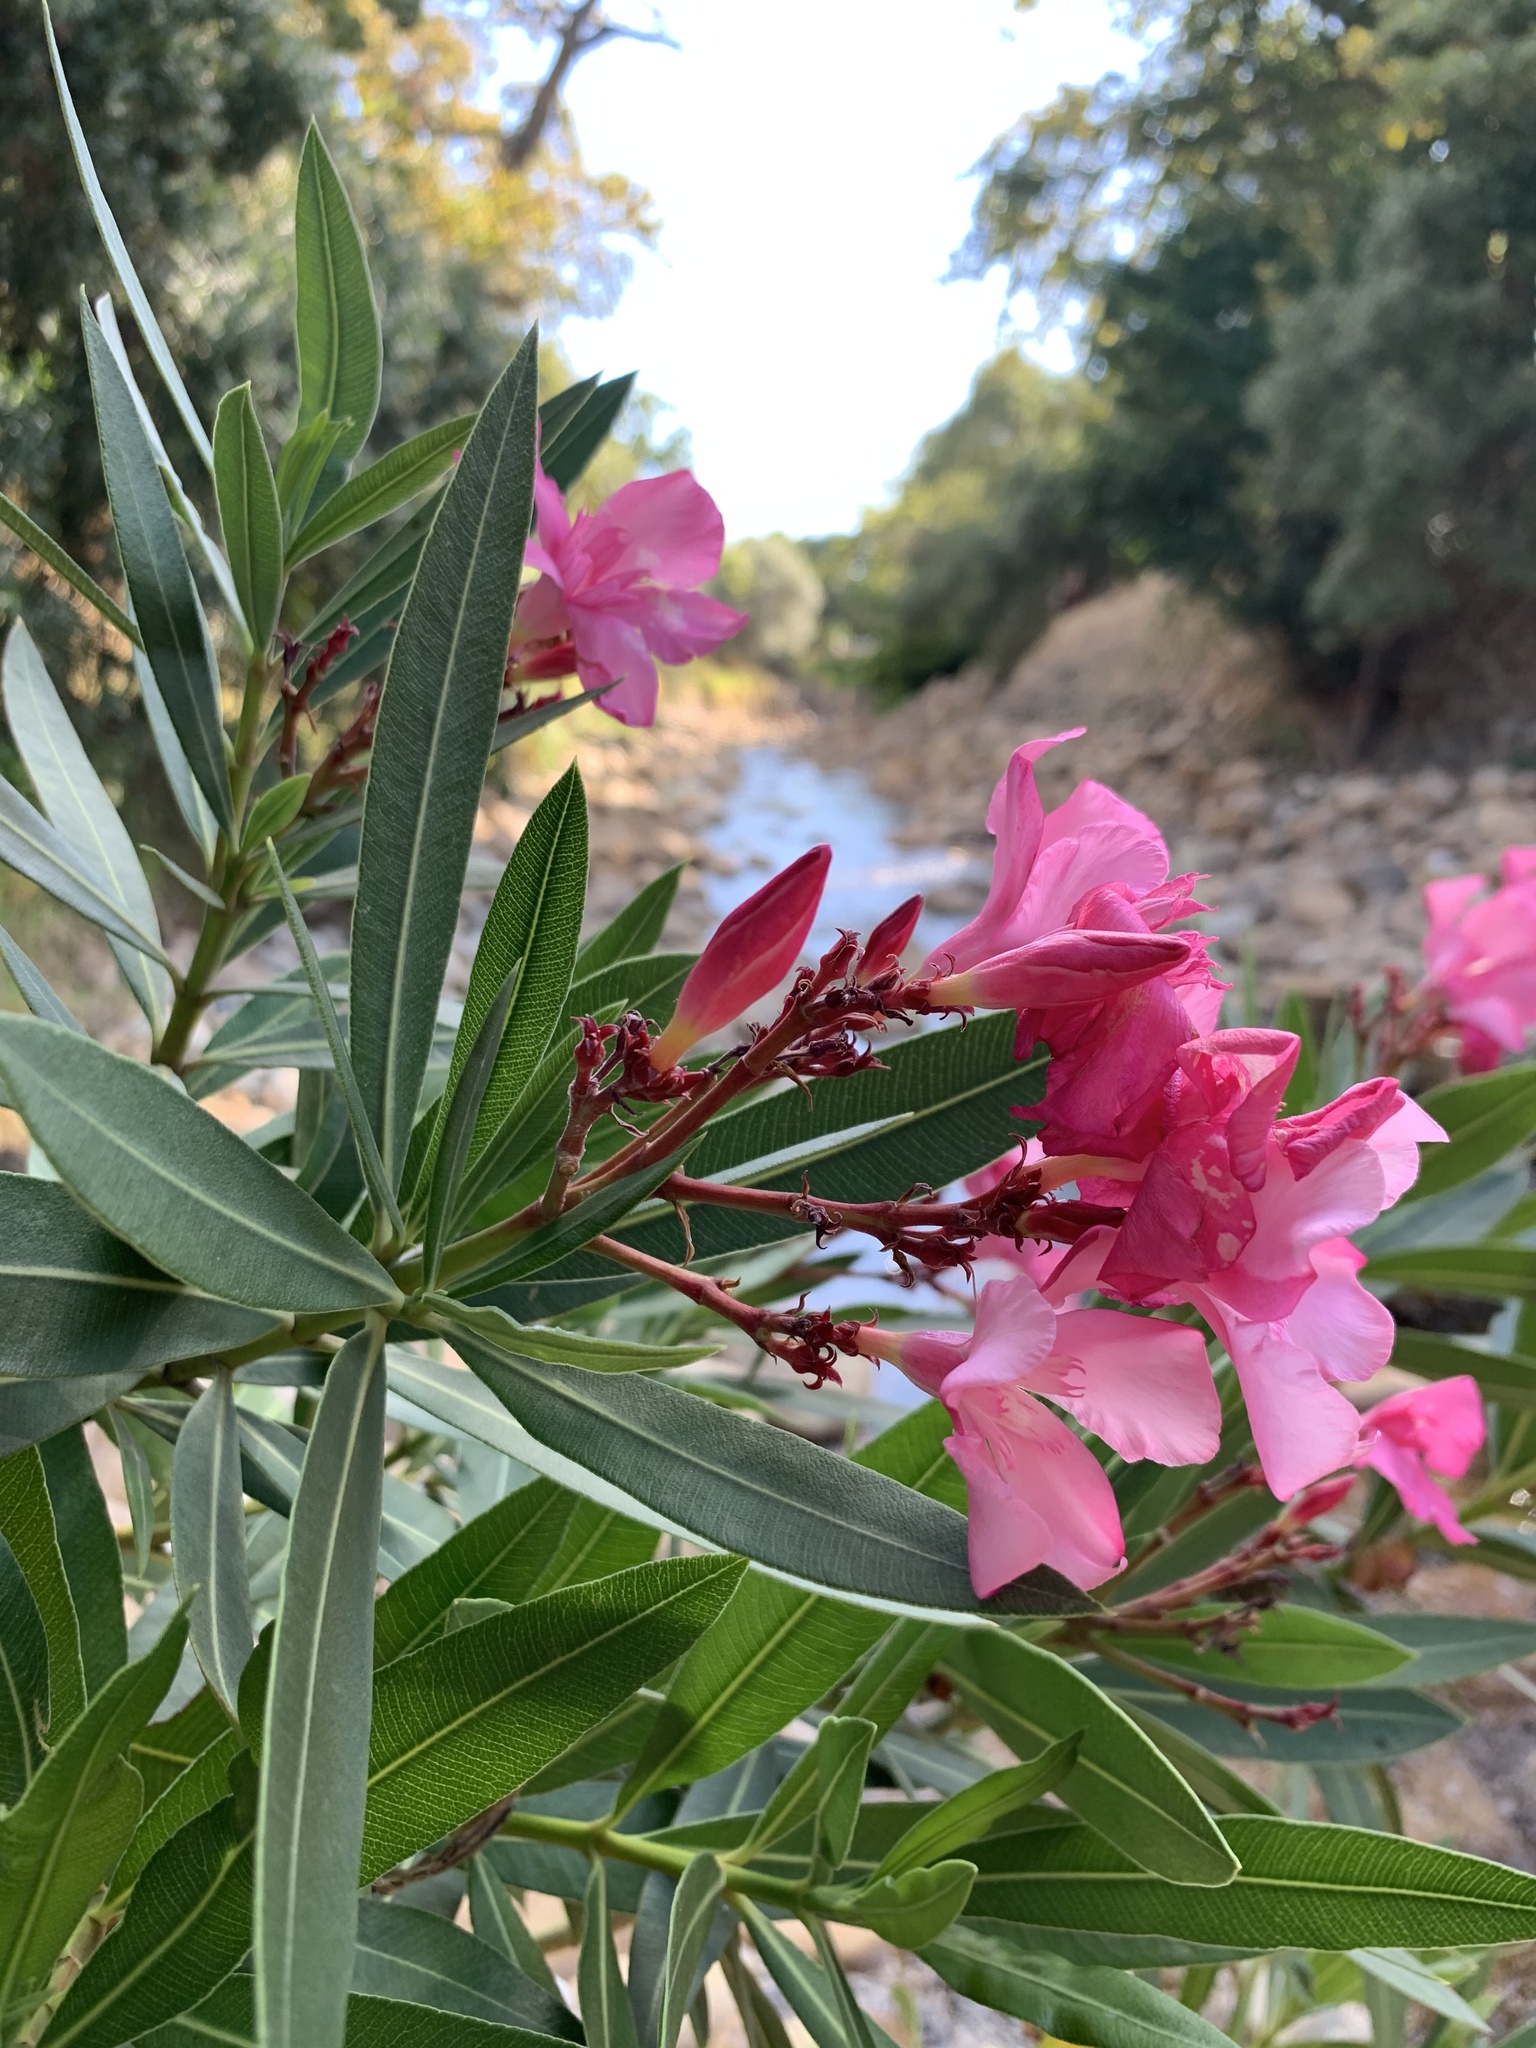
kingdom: Plantae
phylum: Tracheophyta
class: Magnoliopsida
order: Gentianales
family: Apocynaceae
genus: Nerium
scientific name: Nerium oleander
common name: Oleander
